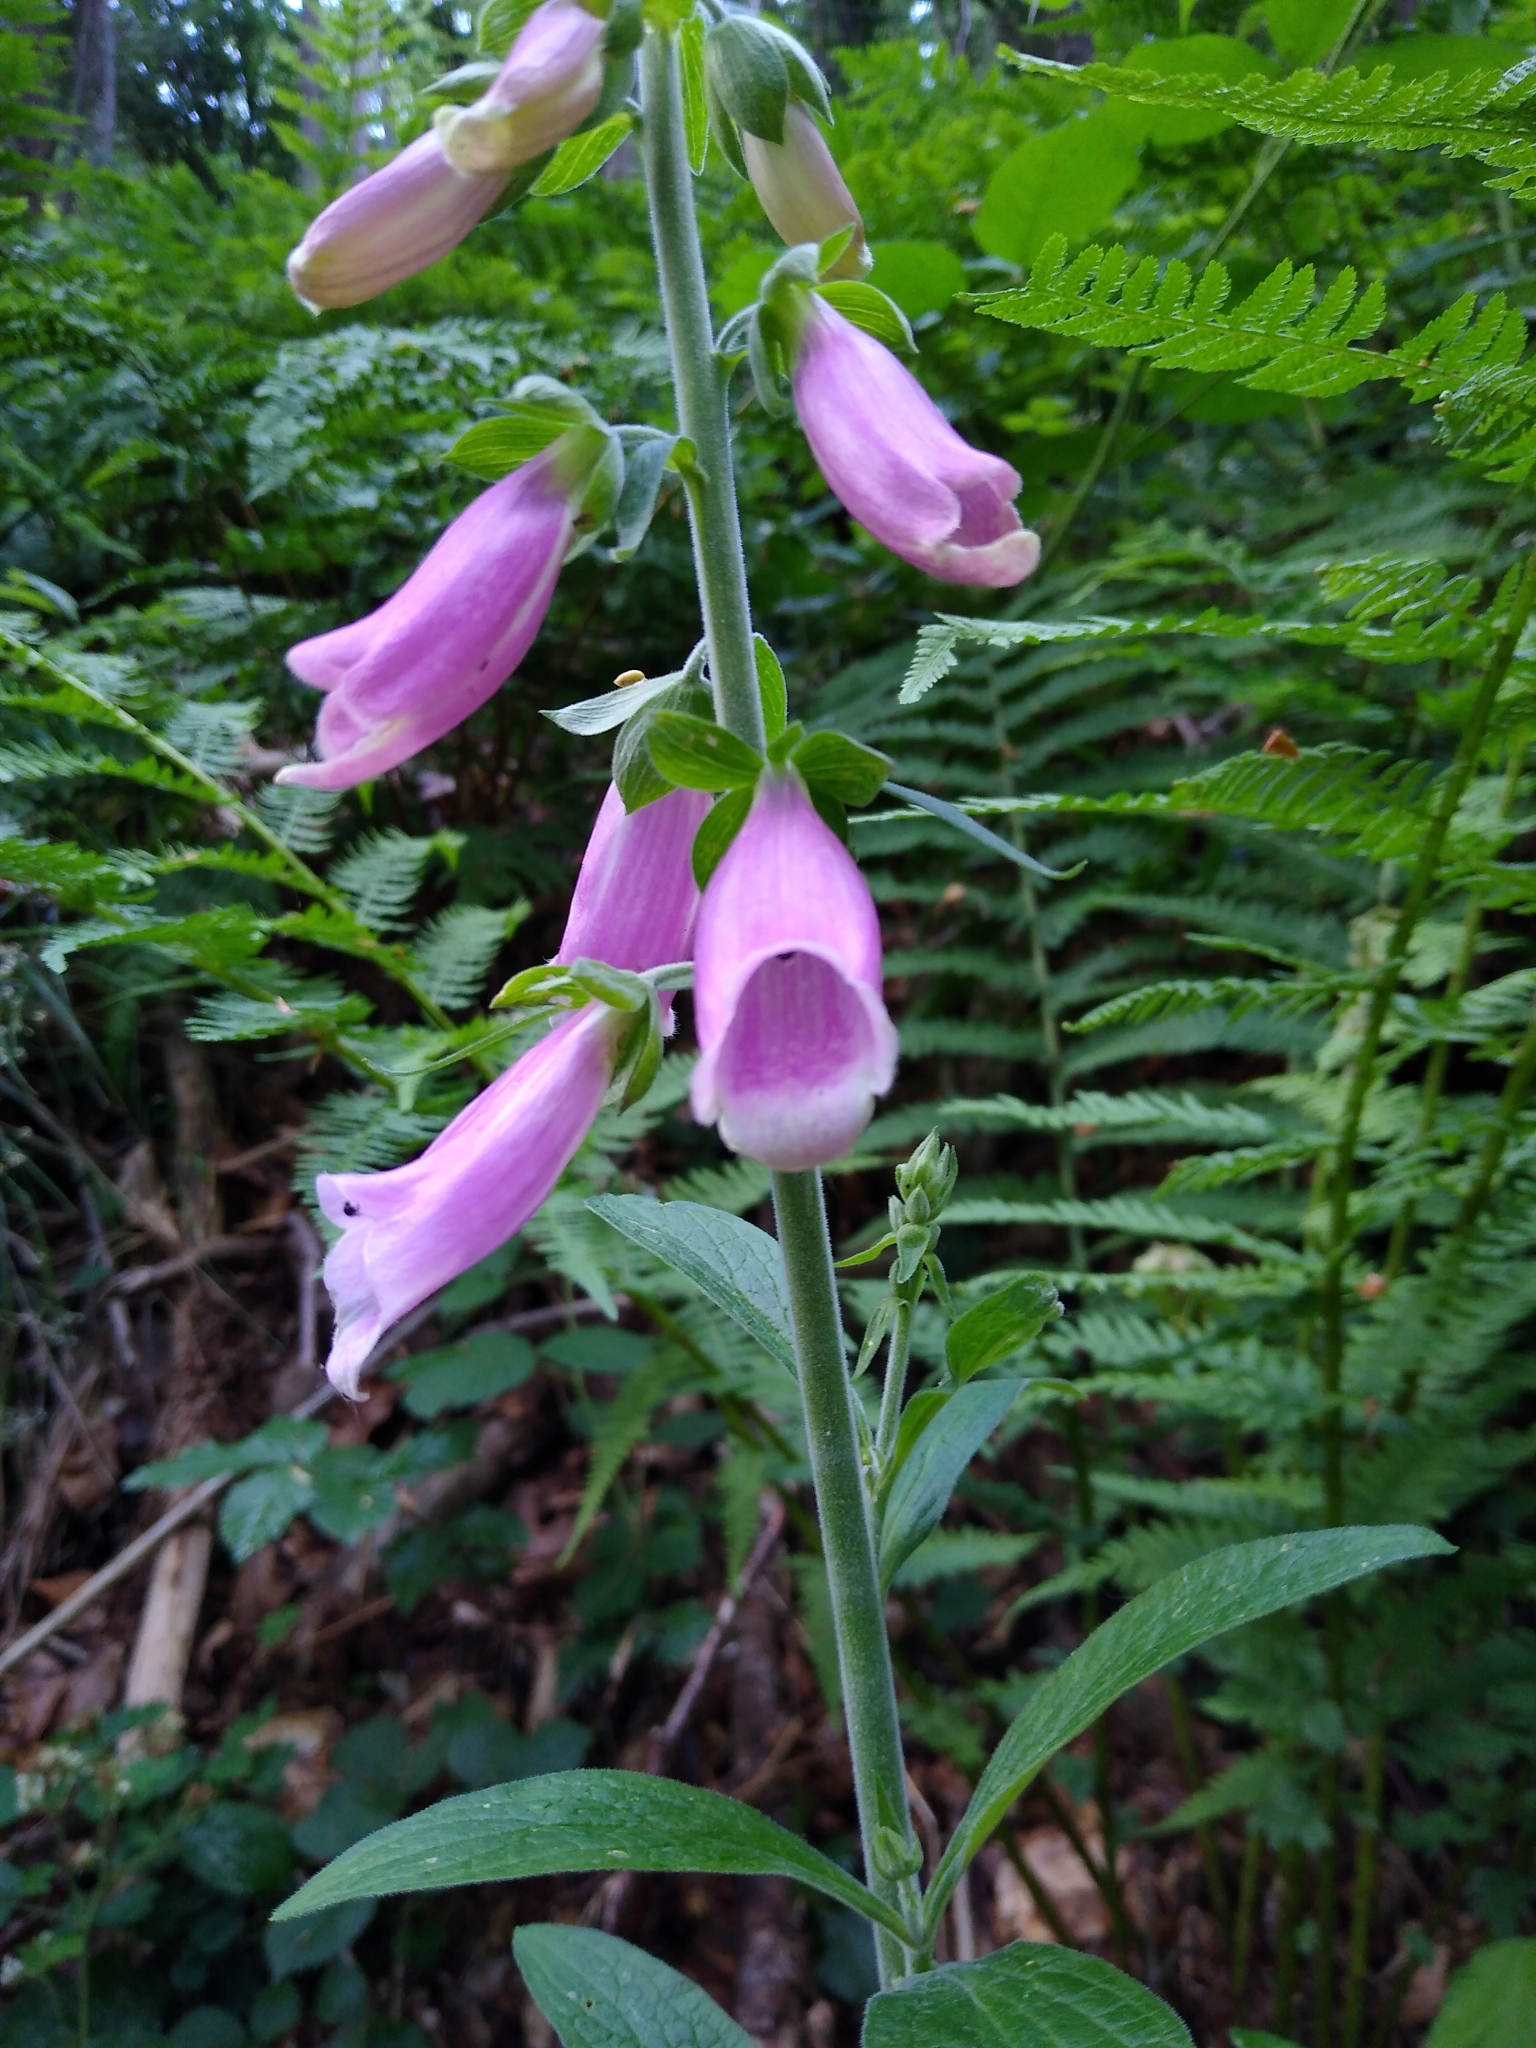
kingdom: Plantae
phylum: Tracheophyta
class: Magnoliopsida
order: Lamiales
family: Plantaginaceae
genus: Digitalis
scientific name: Digitalis purpurea
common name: Foxglove
